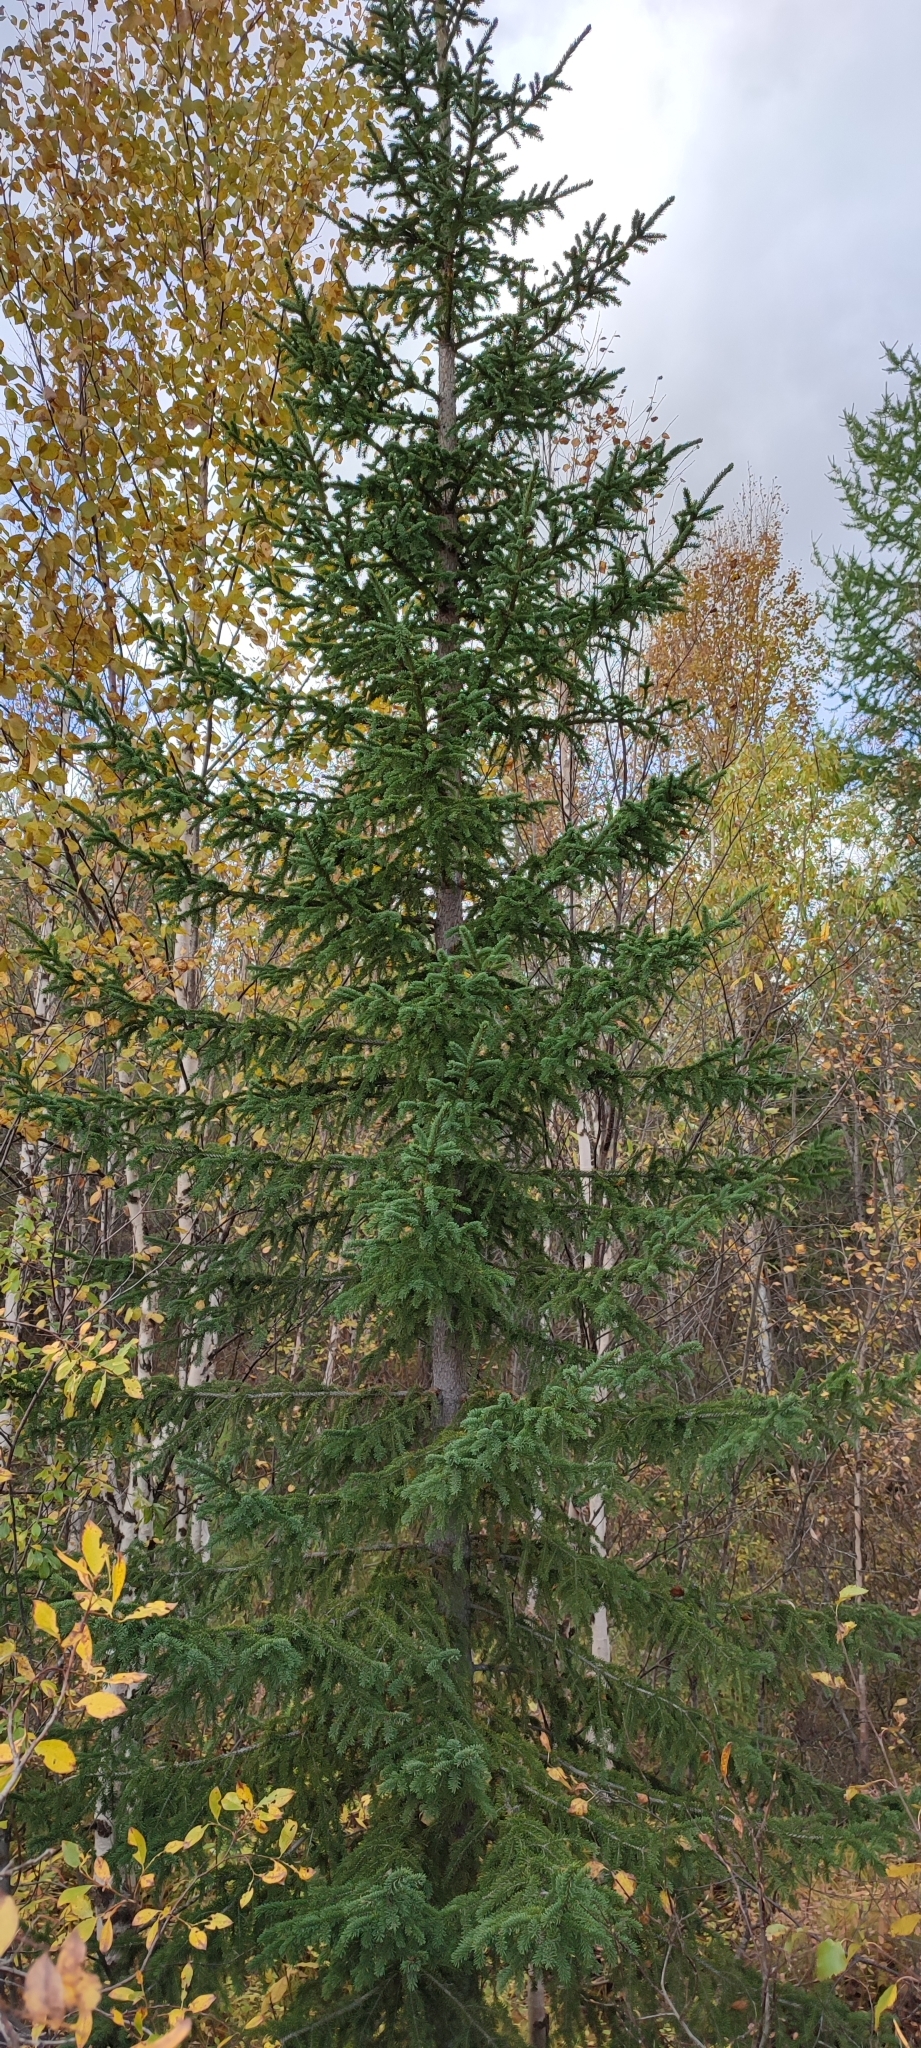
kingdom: Plantae
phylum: Tracheophyta
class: Pinopsida
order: Pinales
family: Pinaceae
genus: Picea
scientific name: Picea obovata
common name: Siberian spruce
